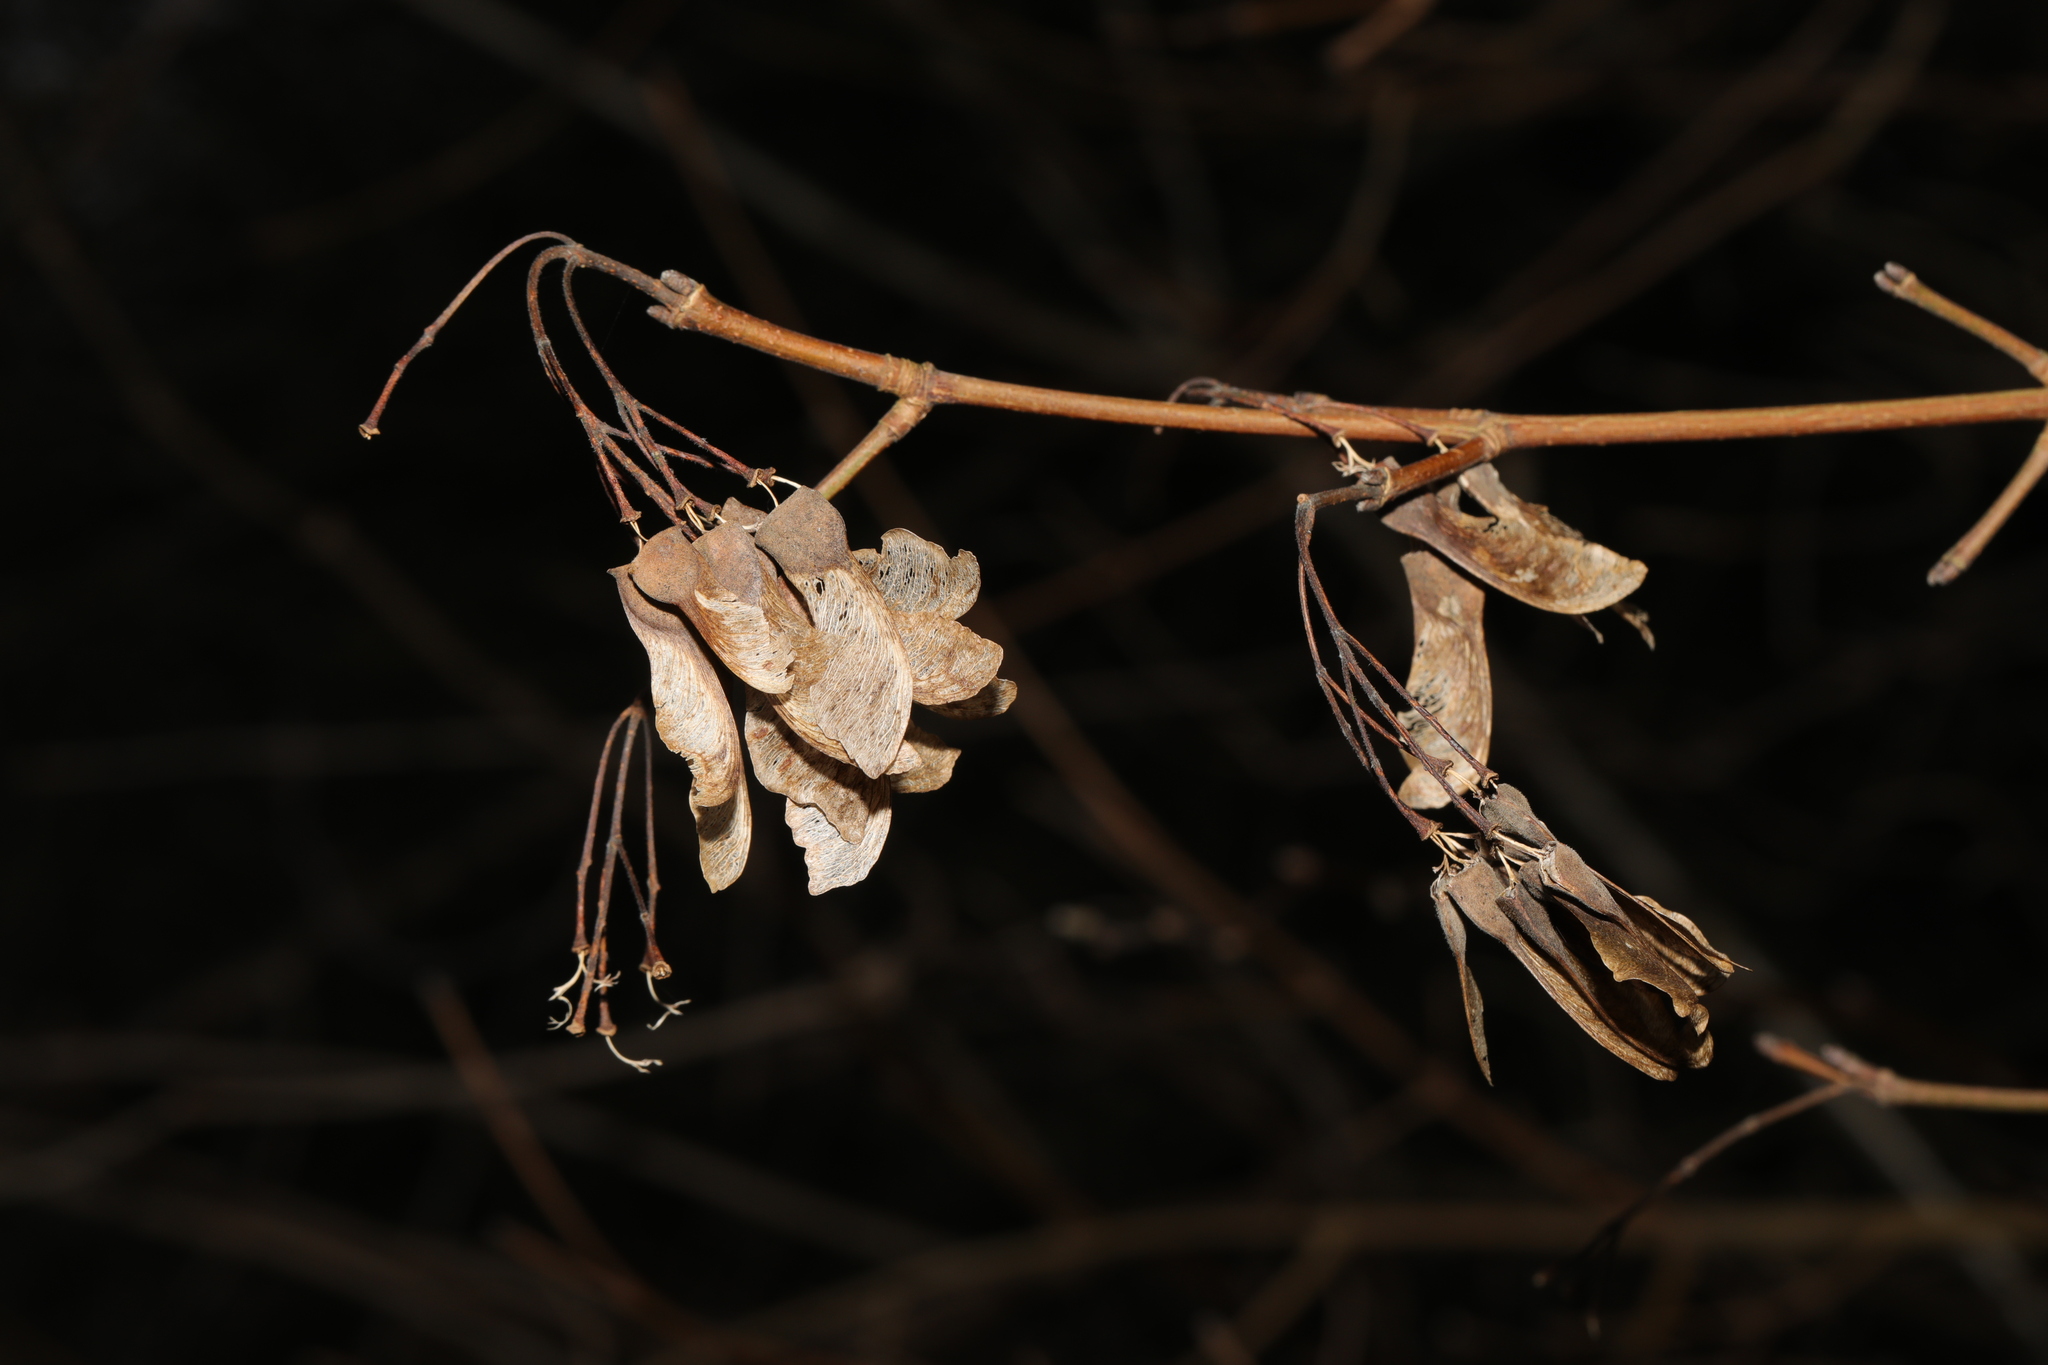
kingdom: Plantae
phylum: Tracheophyta
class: Magnoliopsida
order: Sapindales
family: Sapindaceae
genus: Acer
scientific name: Acer campestre
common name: Field maple
